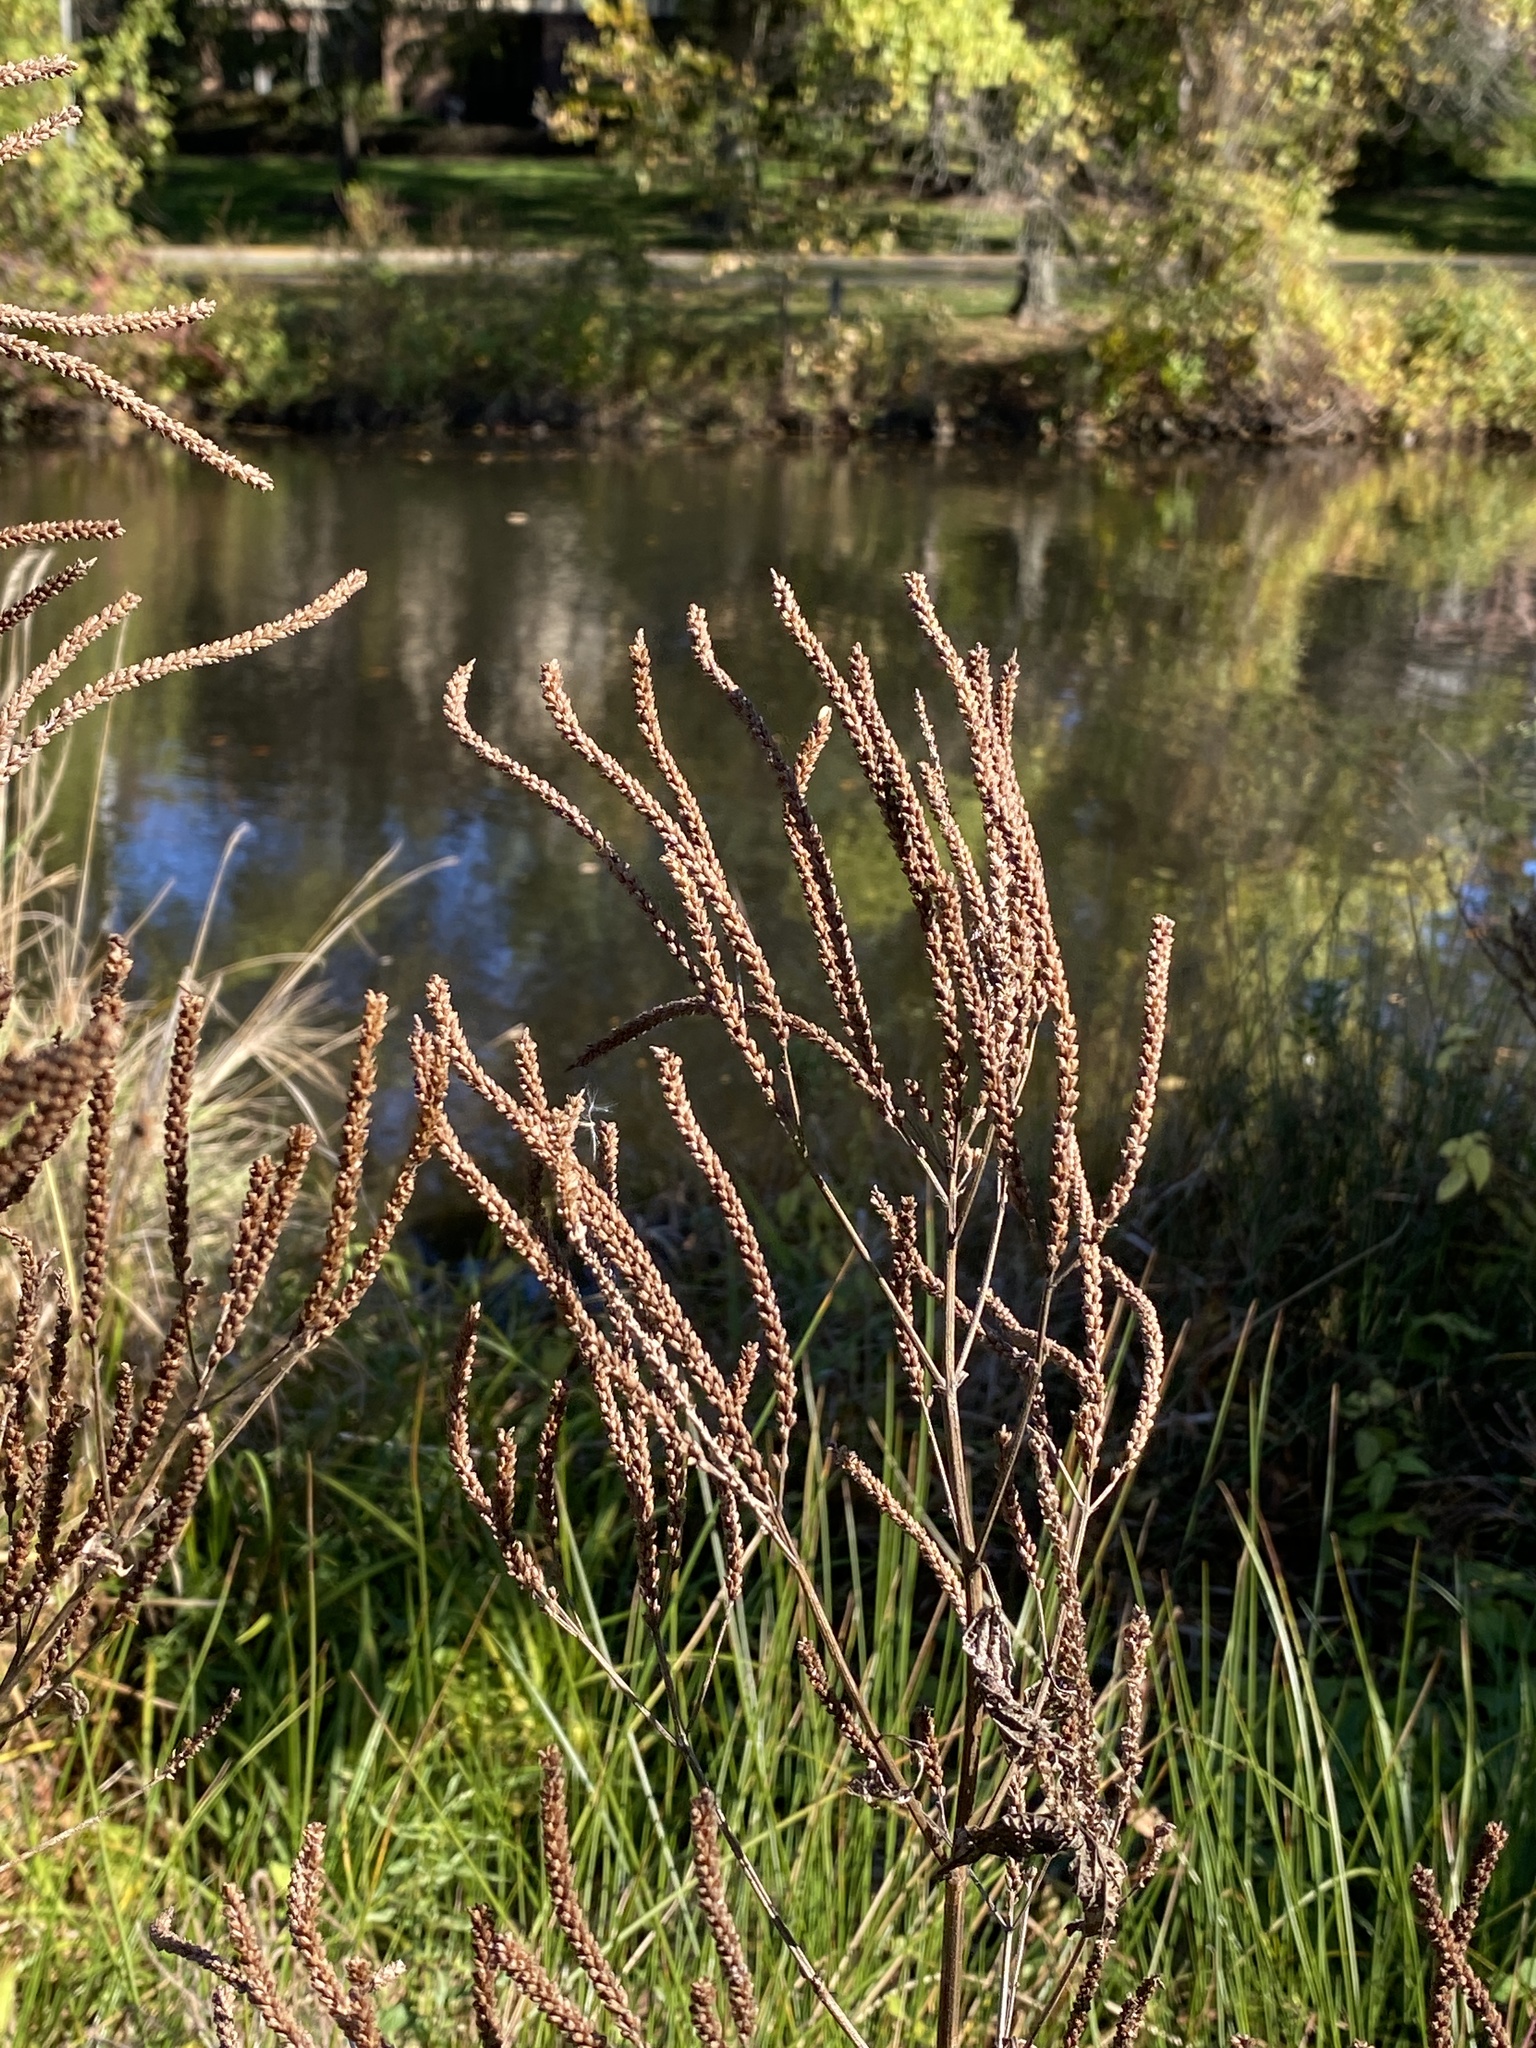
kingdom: Plantae
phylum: Tracheophyta
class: Magnoliopsida
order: Lamiales
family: Verbenaceae
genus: Verbena
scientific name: Verbena hastata
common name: American blue vervain
